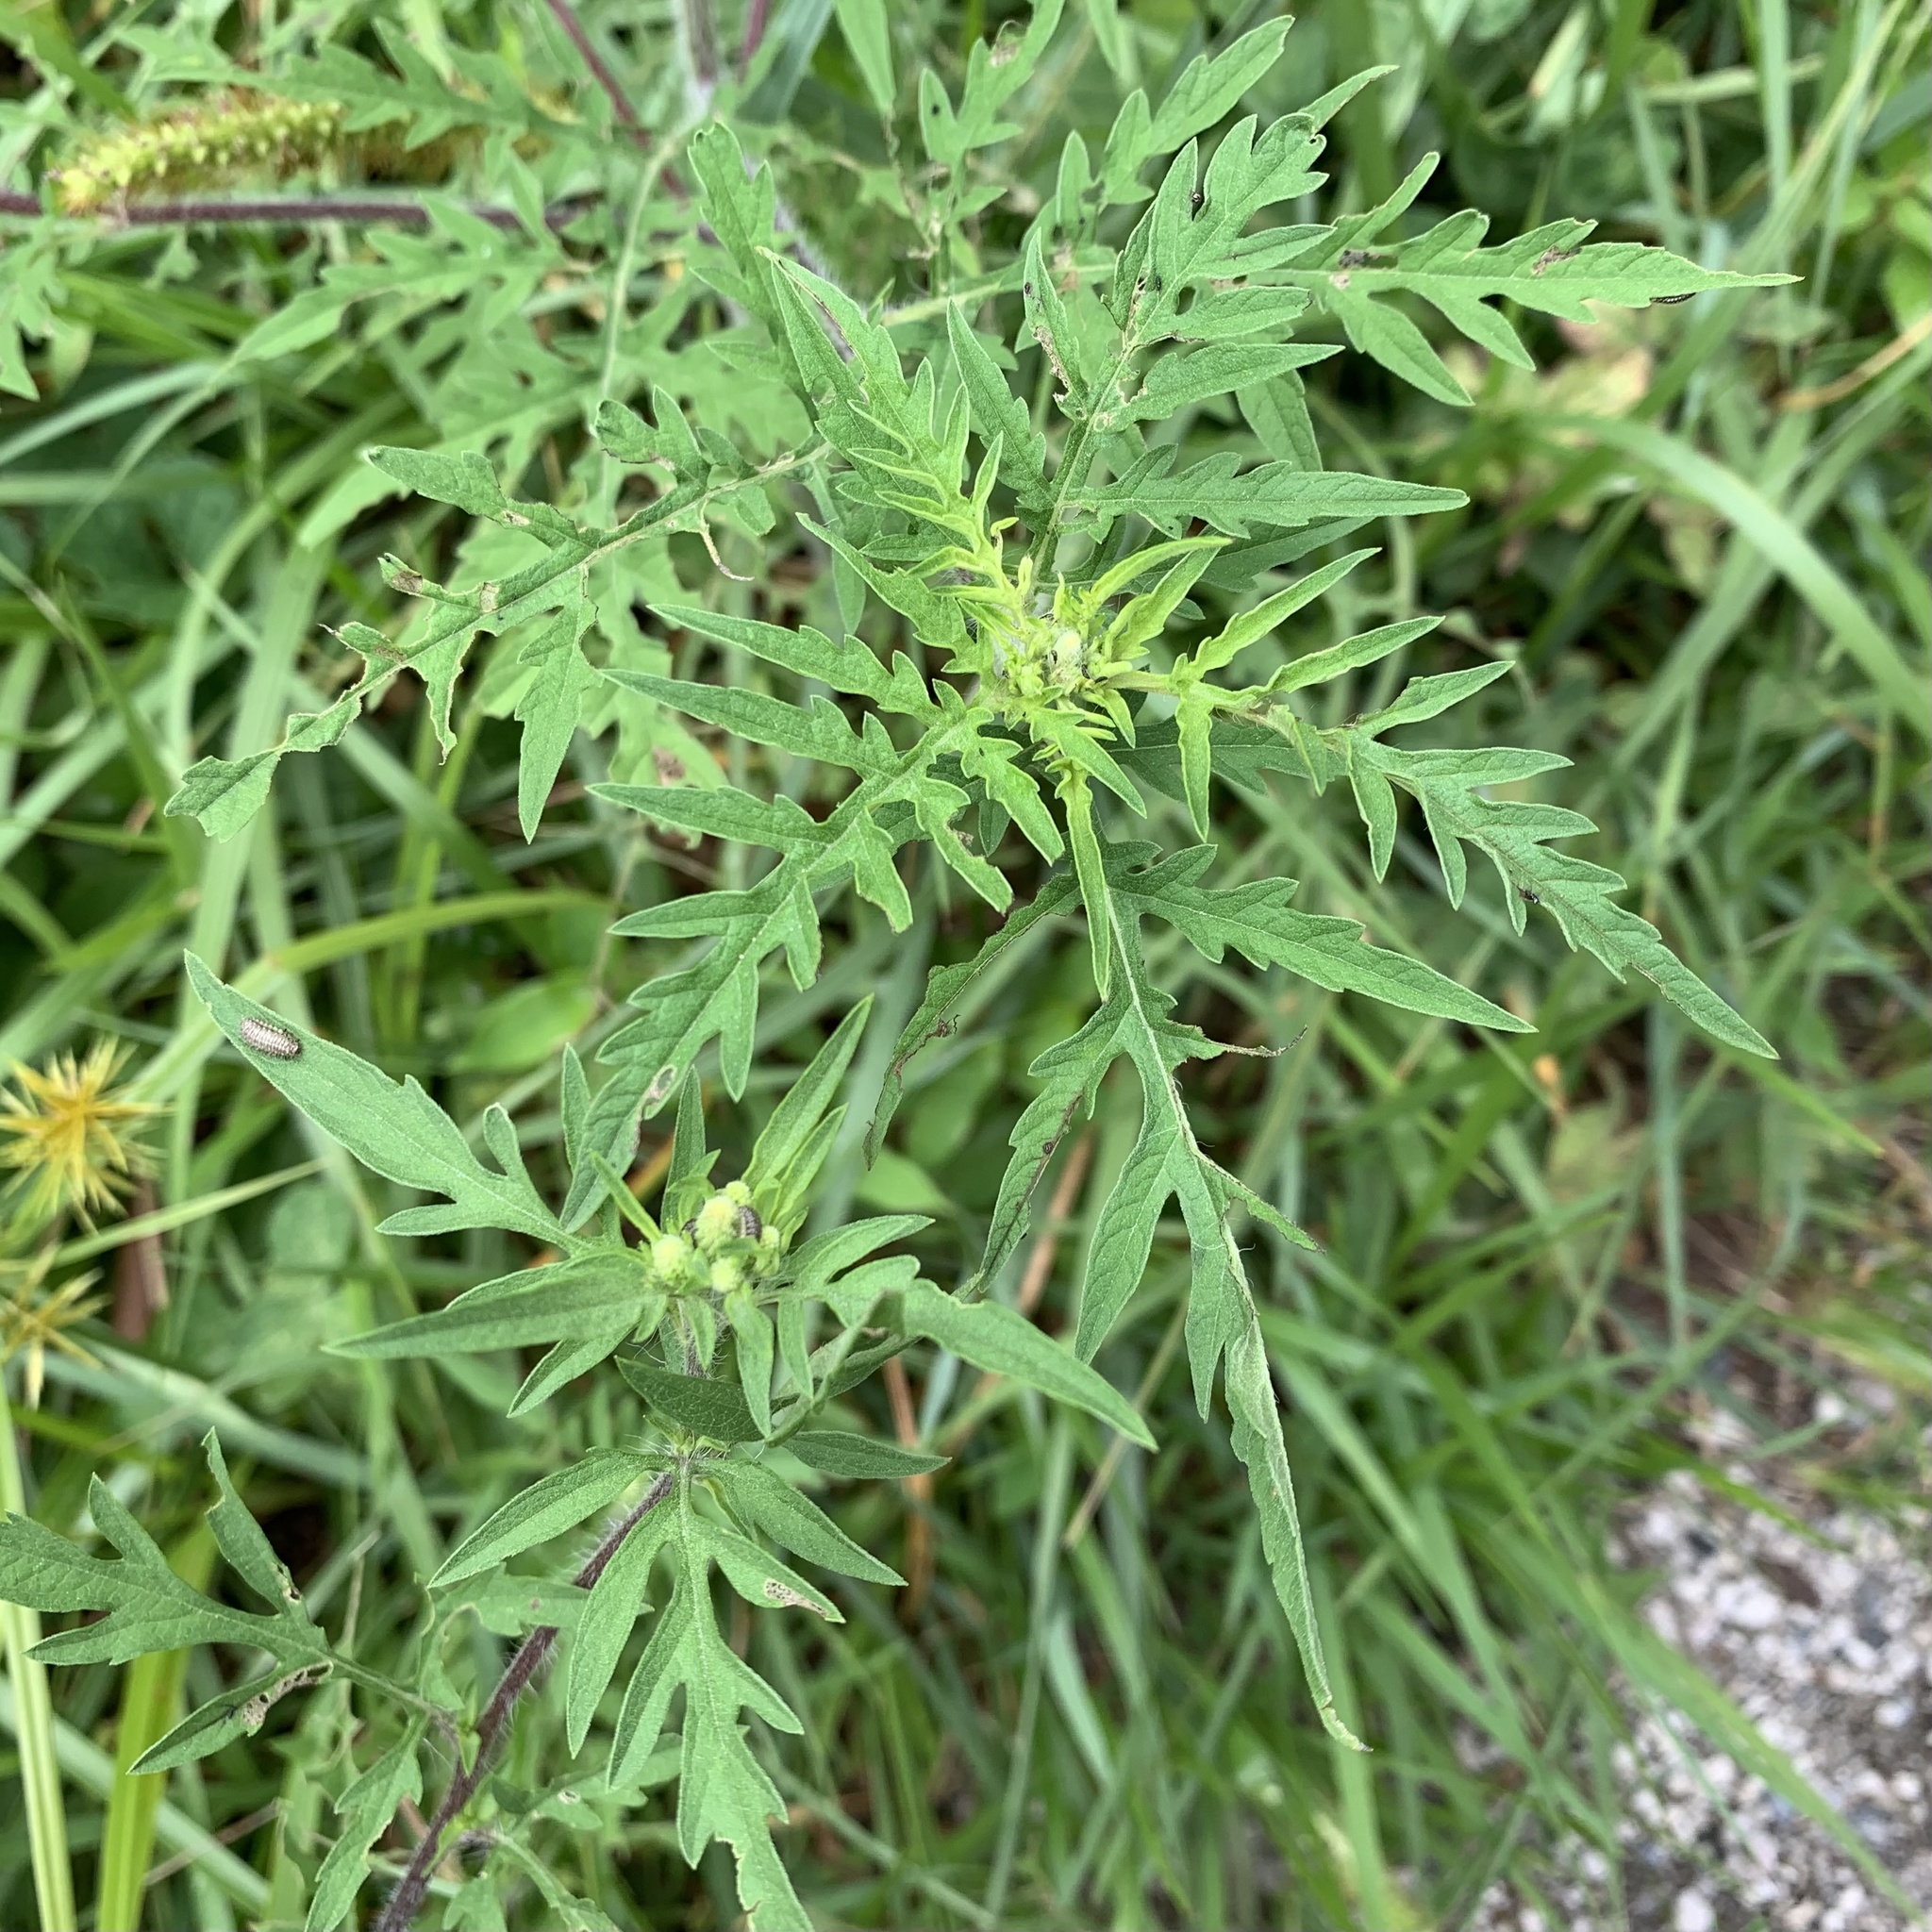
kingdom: Plantae
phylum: Tracheophyta
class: Magnoliopsida
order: Asterales
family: Asteraceae
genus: Ambrosia
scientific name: Ambrosia artemisiifolia
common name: Annual ragweed
